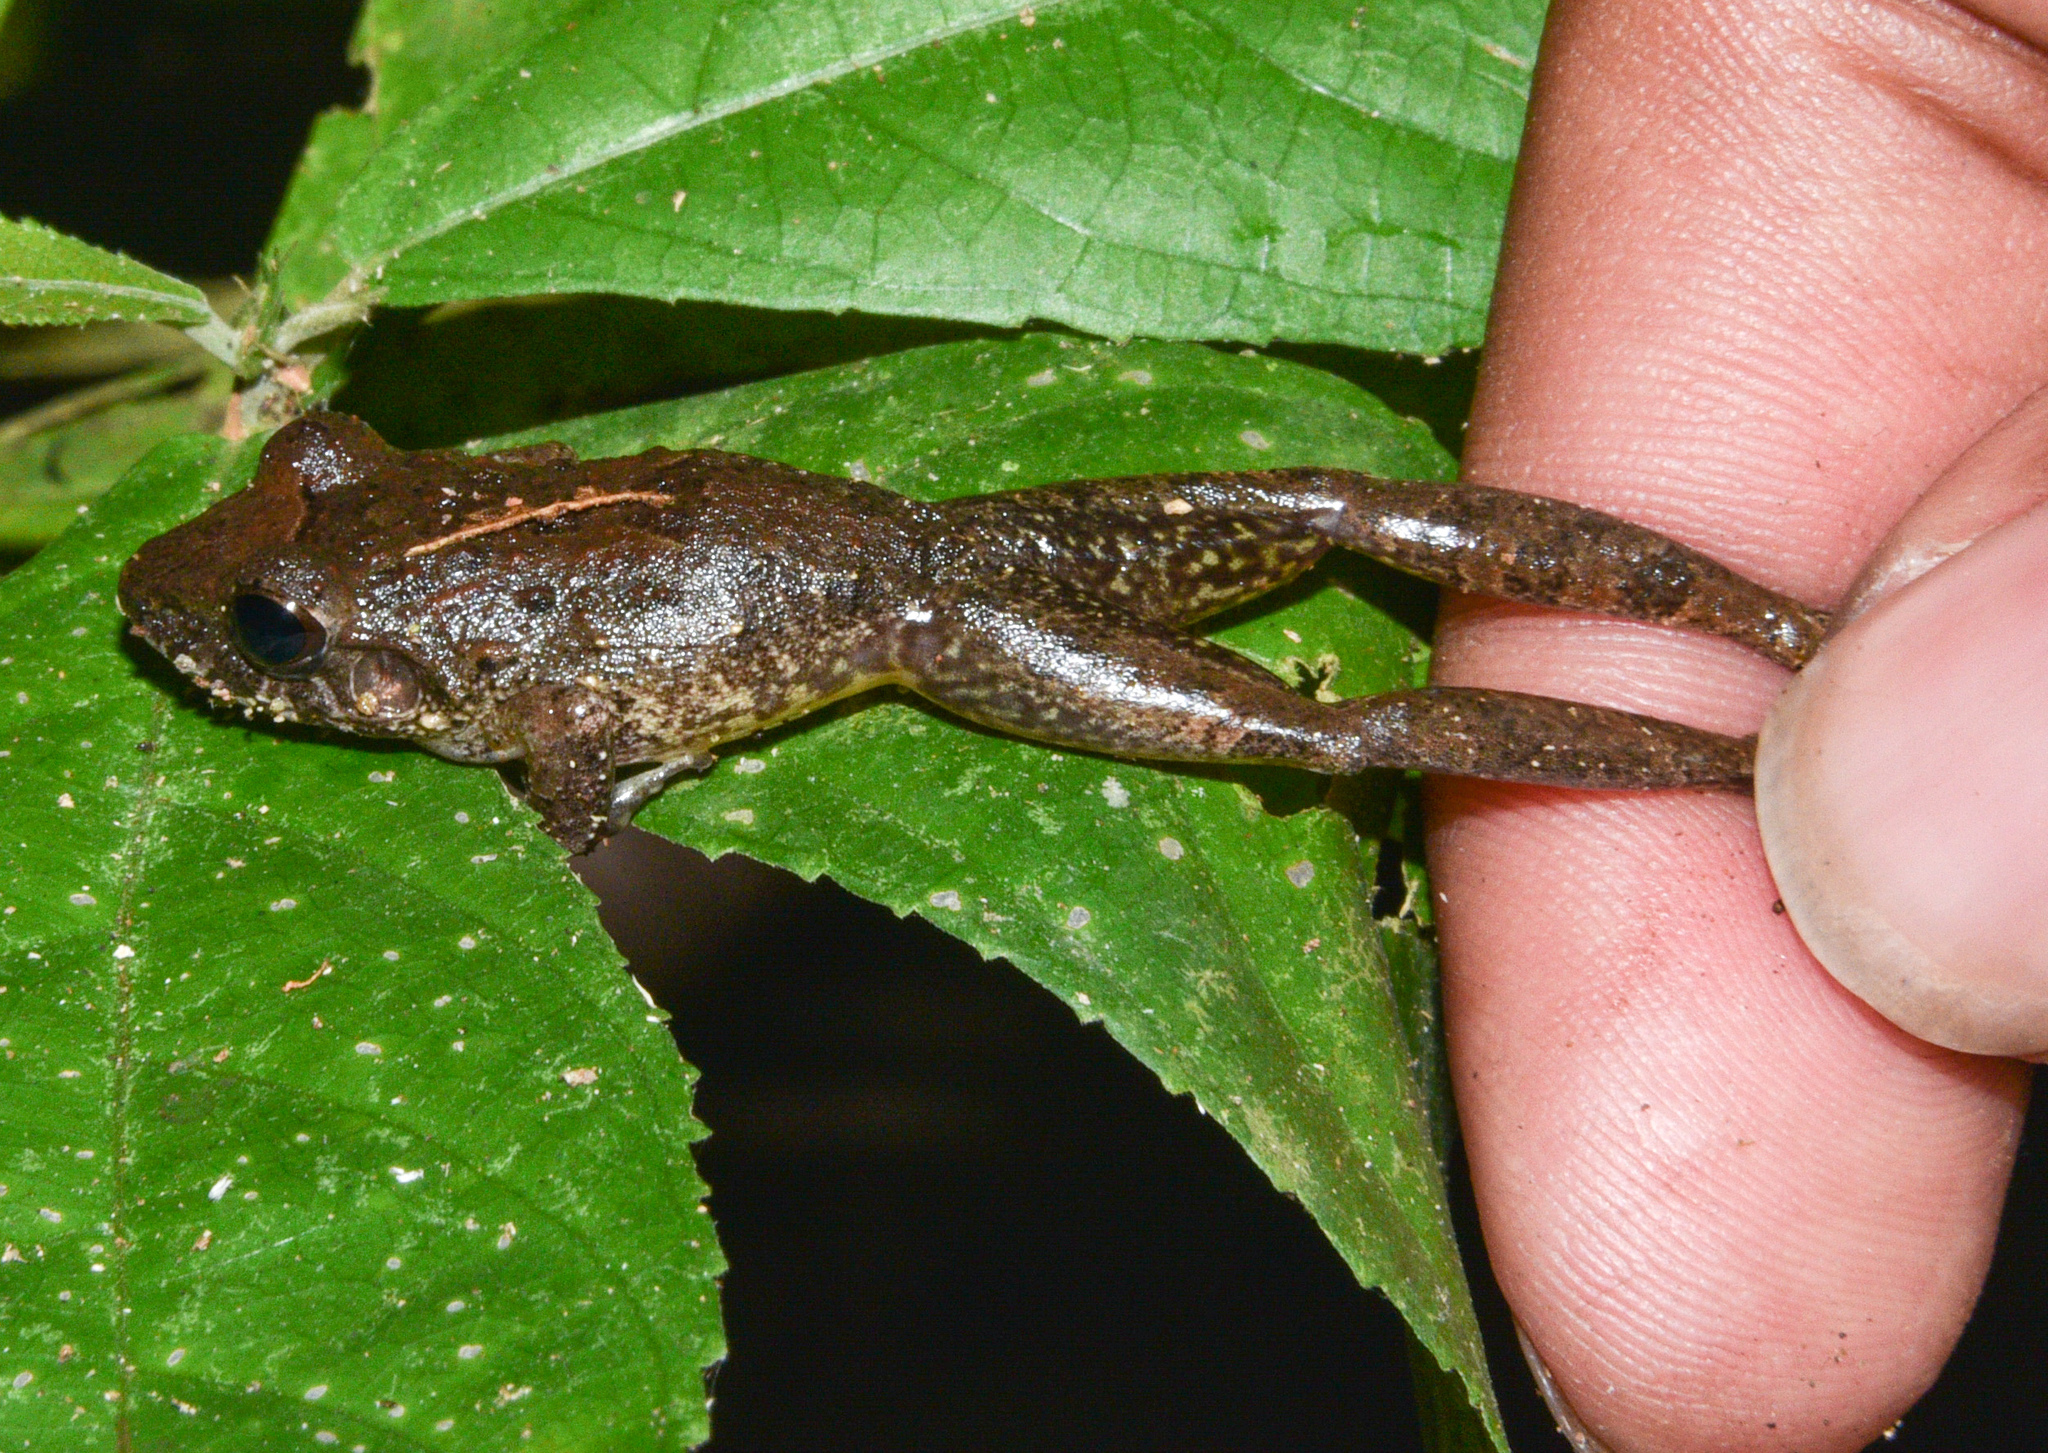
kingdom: Animalia
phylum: Chordata
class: Amphibia
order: Anura
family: Craugastoridae
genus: Craugastor
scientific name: Craugastor fitzingeri
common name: Fitzinger's robber frog
